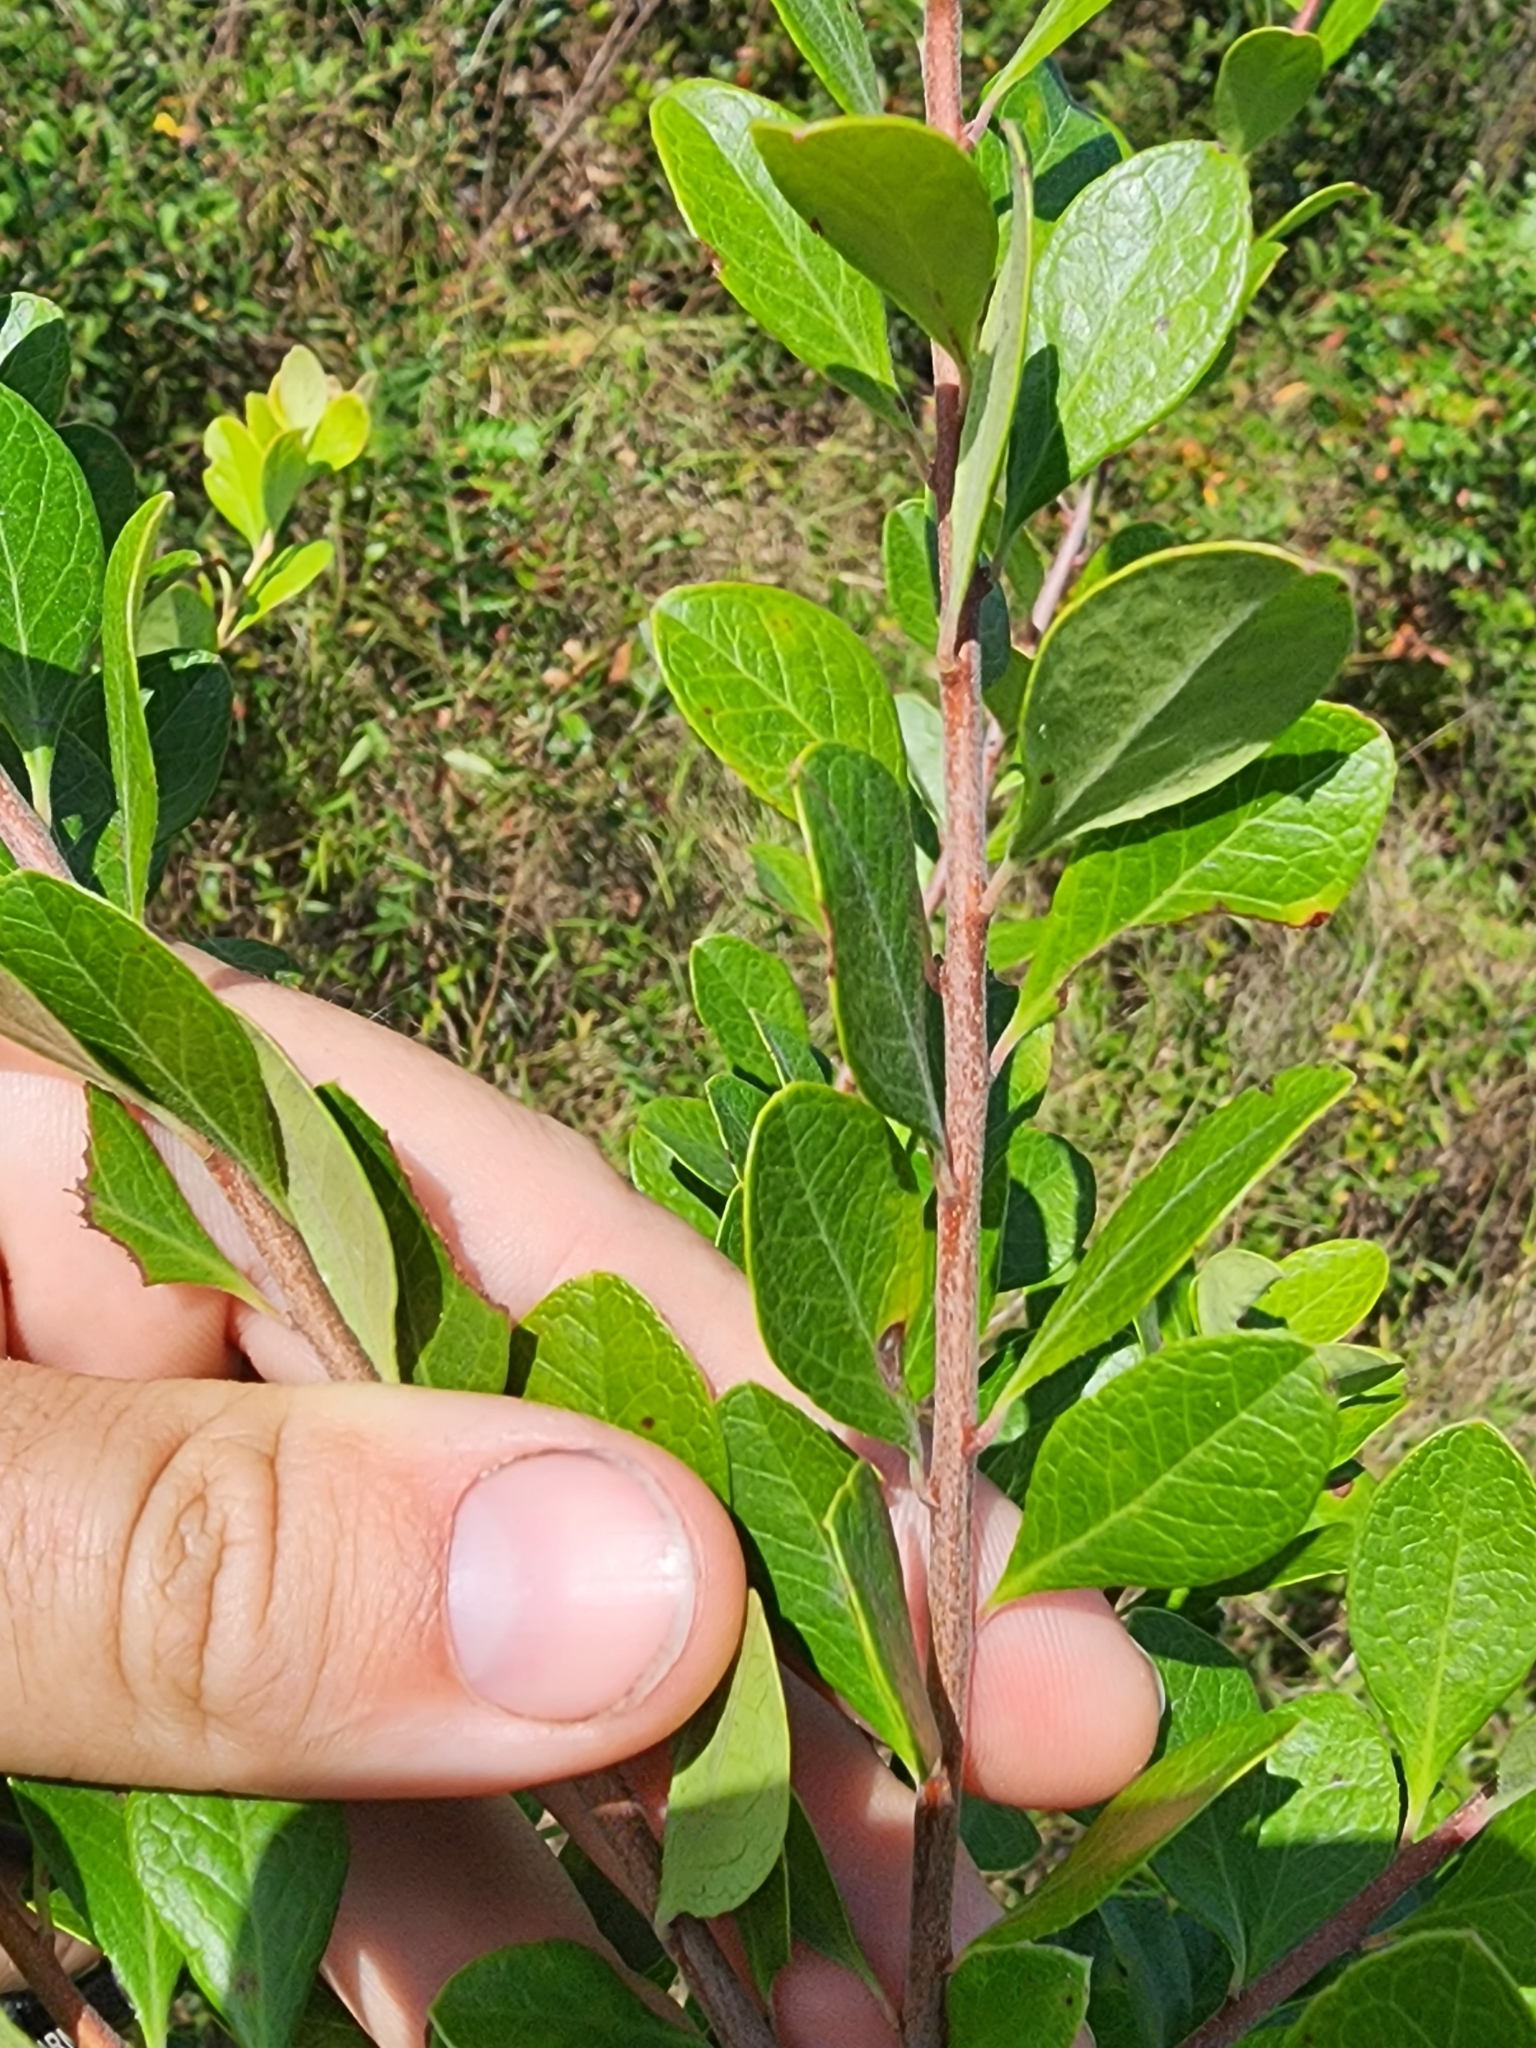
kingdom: Plantae
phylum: Tracheophyta
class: Magnoliopsida
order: Ericales
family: Ericaceae
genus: Vaccinium
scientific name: Vaccinium arboreum
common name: Farkleberry
